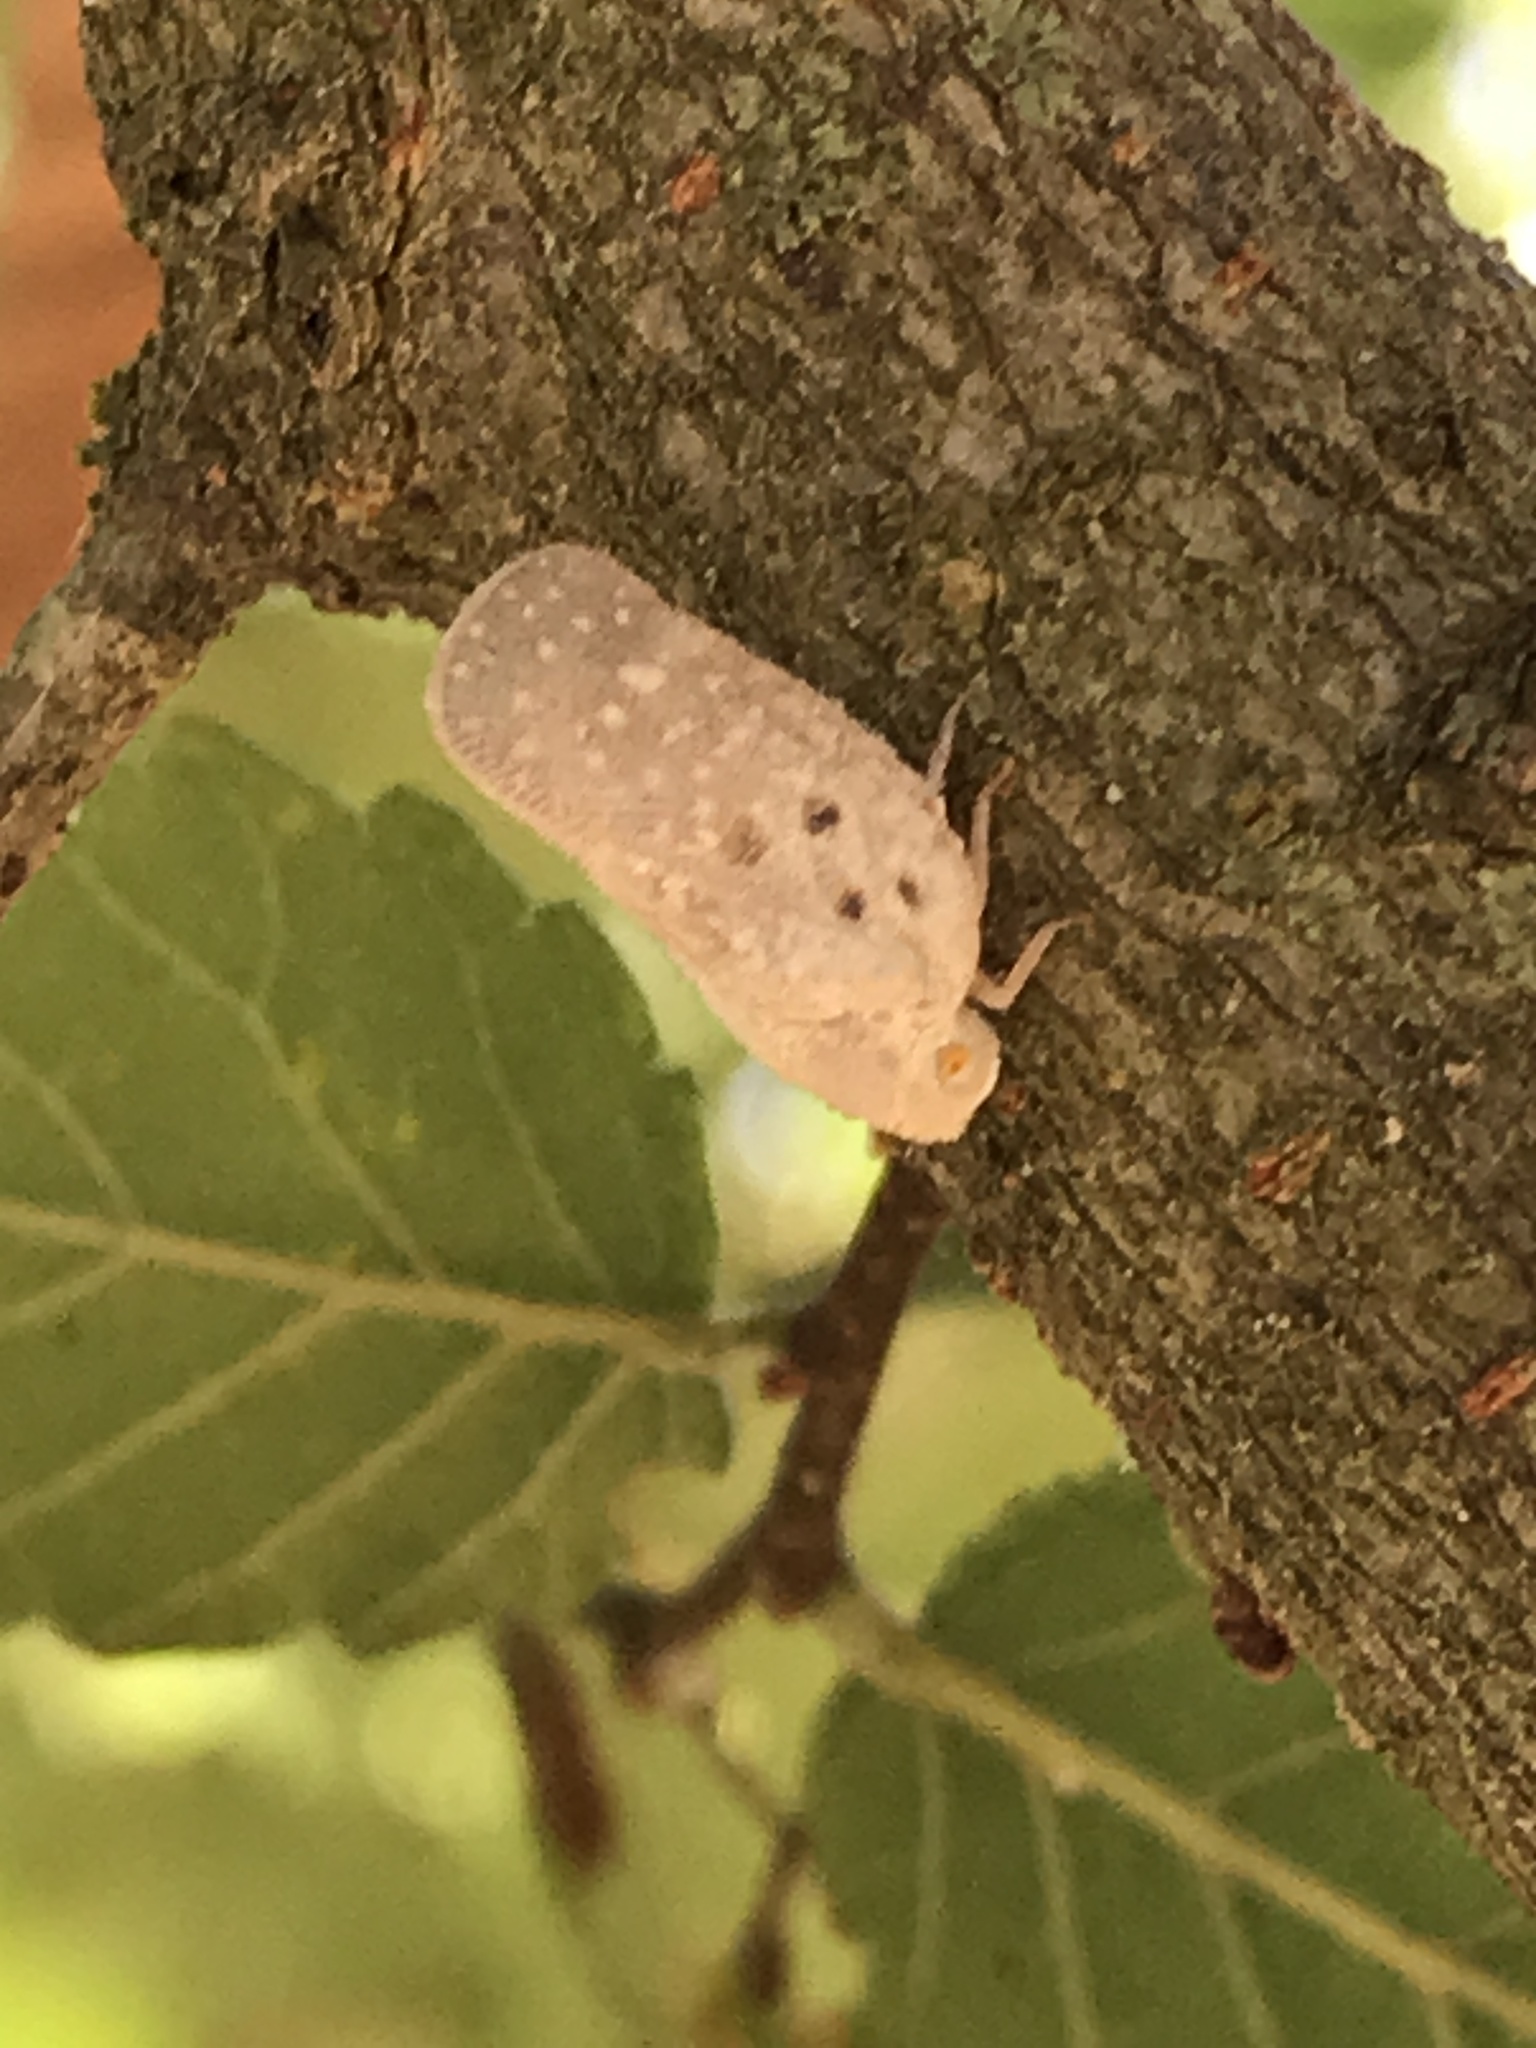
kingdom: Animalia
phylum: Arthropoda
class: Insecta
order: Hemiptera
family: Flatidae
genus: Metcalfa
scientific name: Metcalfa pruinosa
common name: Citrus flatid planthopper
